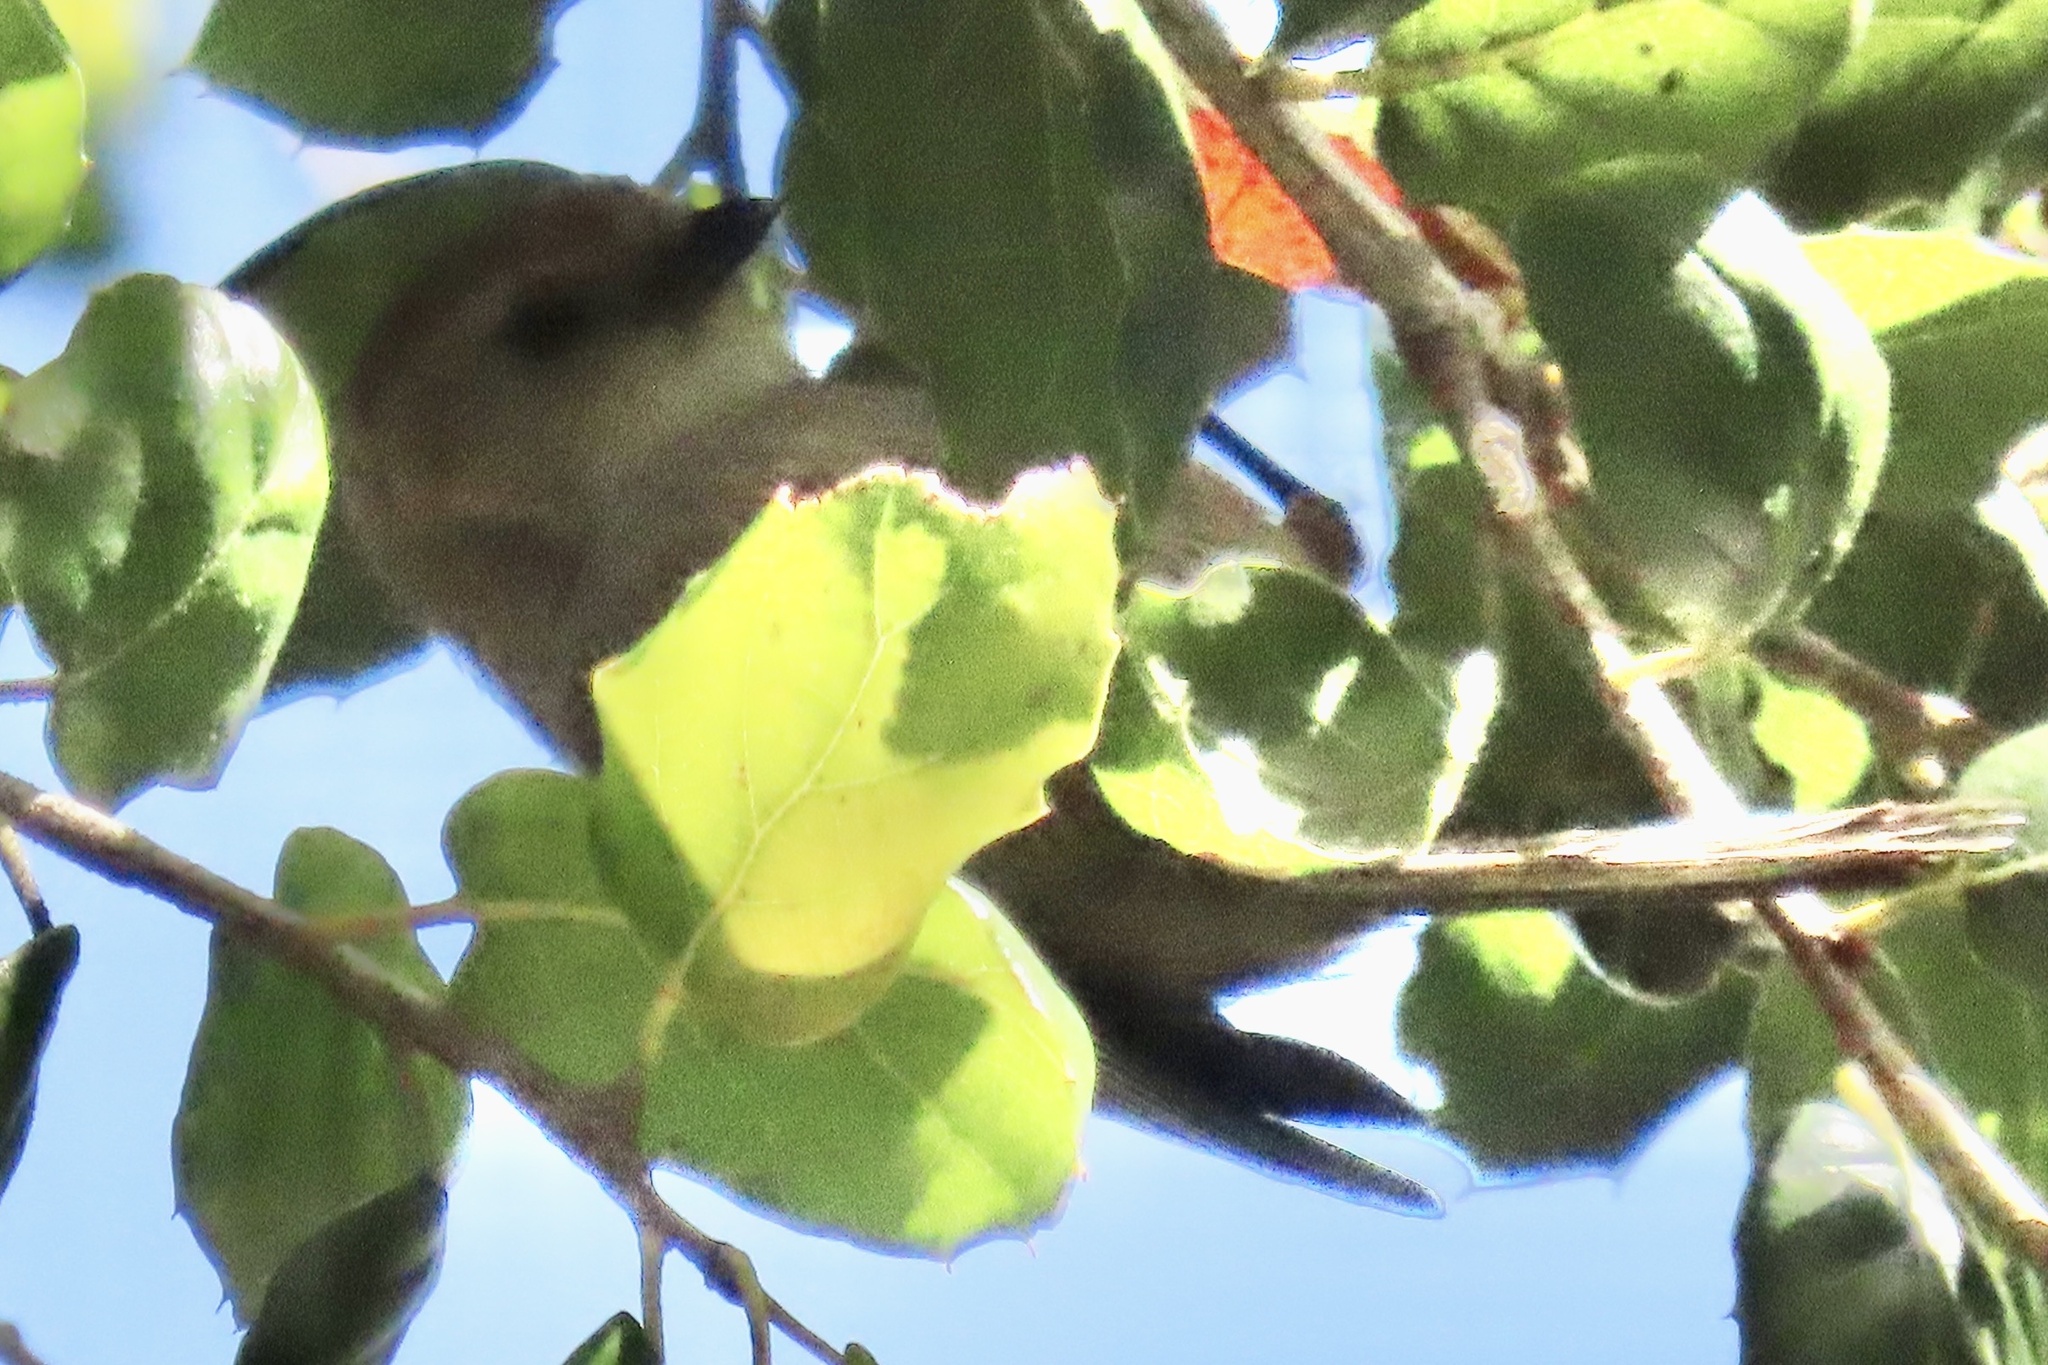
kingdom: Animalia
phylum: Chordata
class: Aves
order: Passeriformes
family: Aegithalidae
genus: Psaltriparus
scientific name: Psaltriparus minimus
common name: American bushtit
